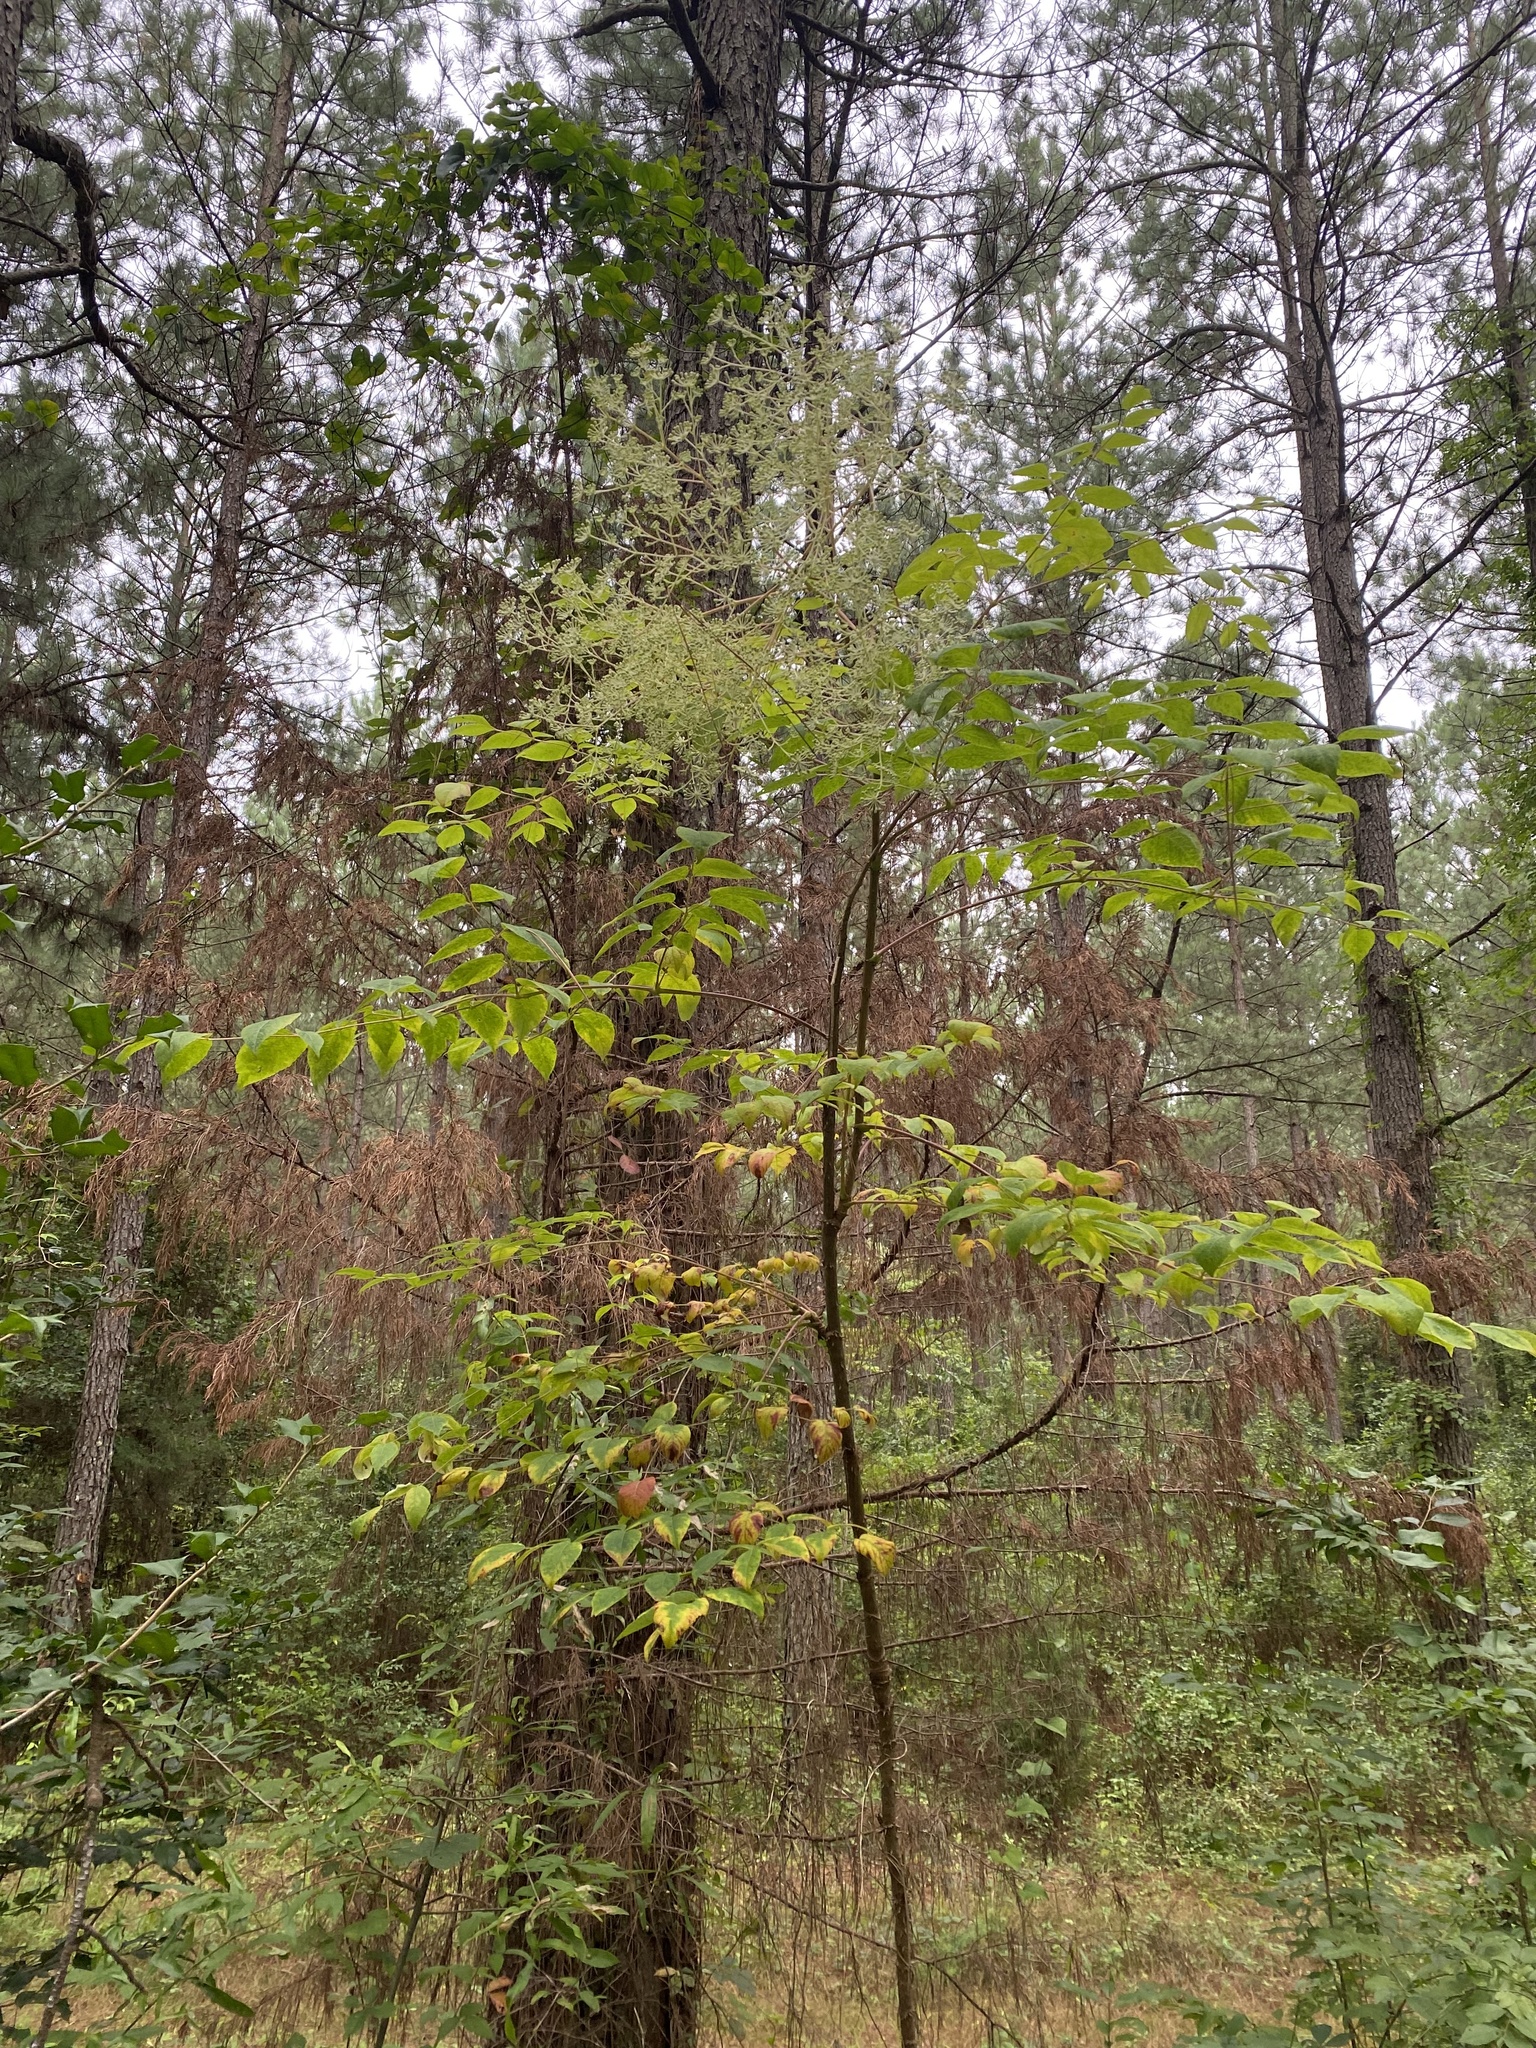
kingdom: Plantae
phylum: Tracheophyta
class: Magnoliopsida
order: Apiales
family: Araliaceae
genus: Aralia
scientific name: Aralia spinosa
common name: Hercules'-club
